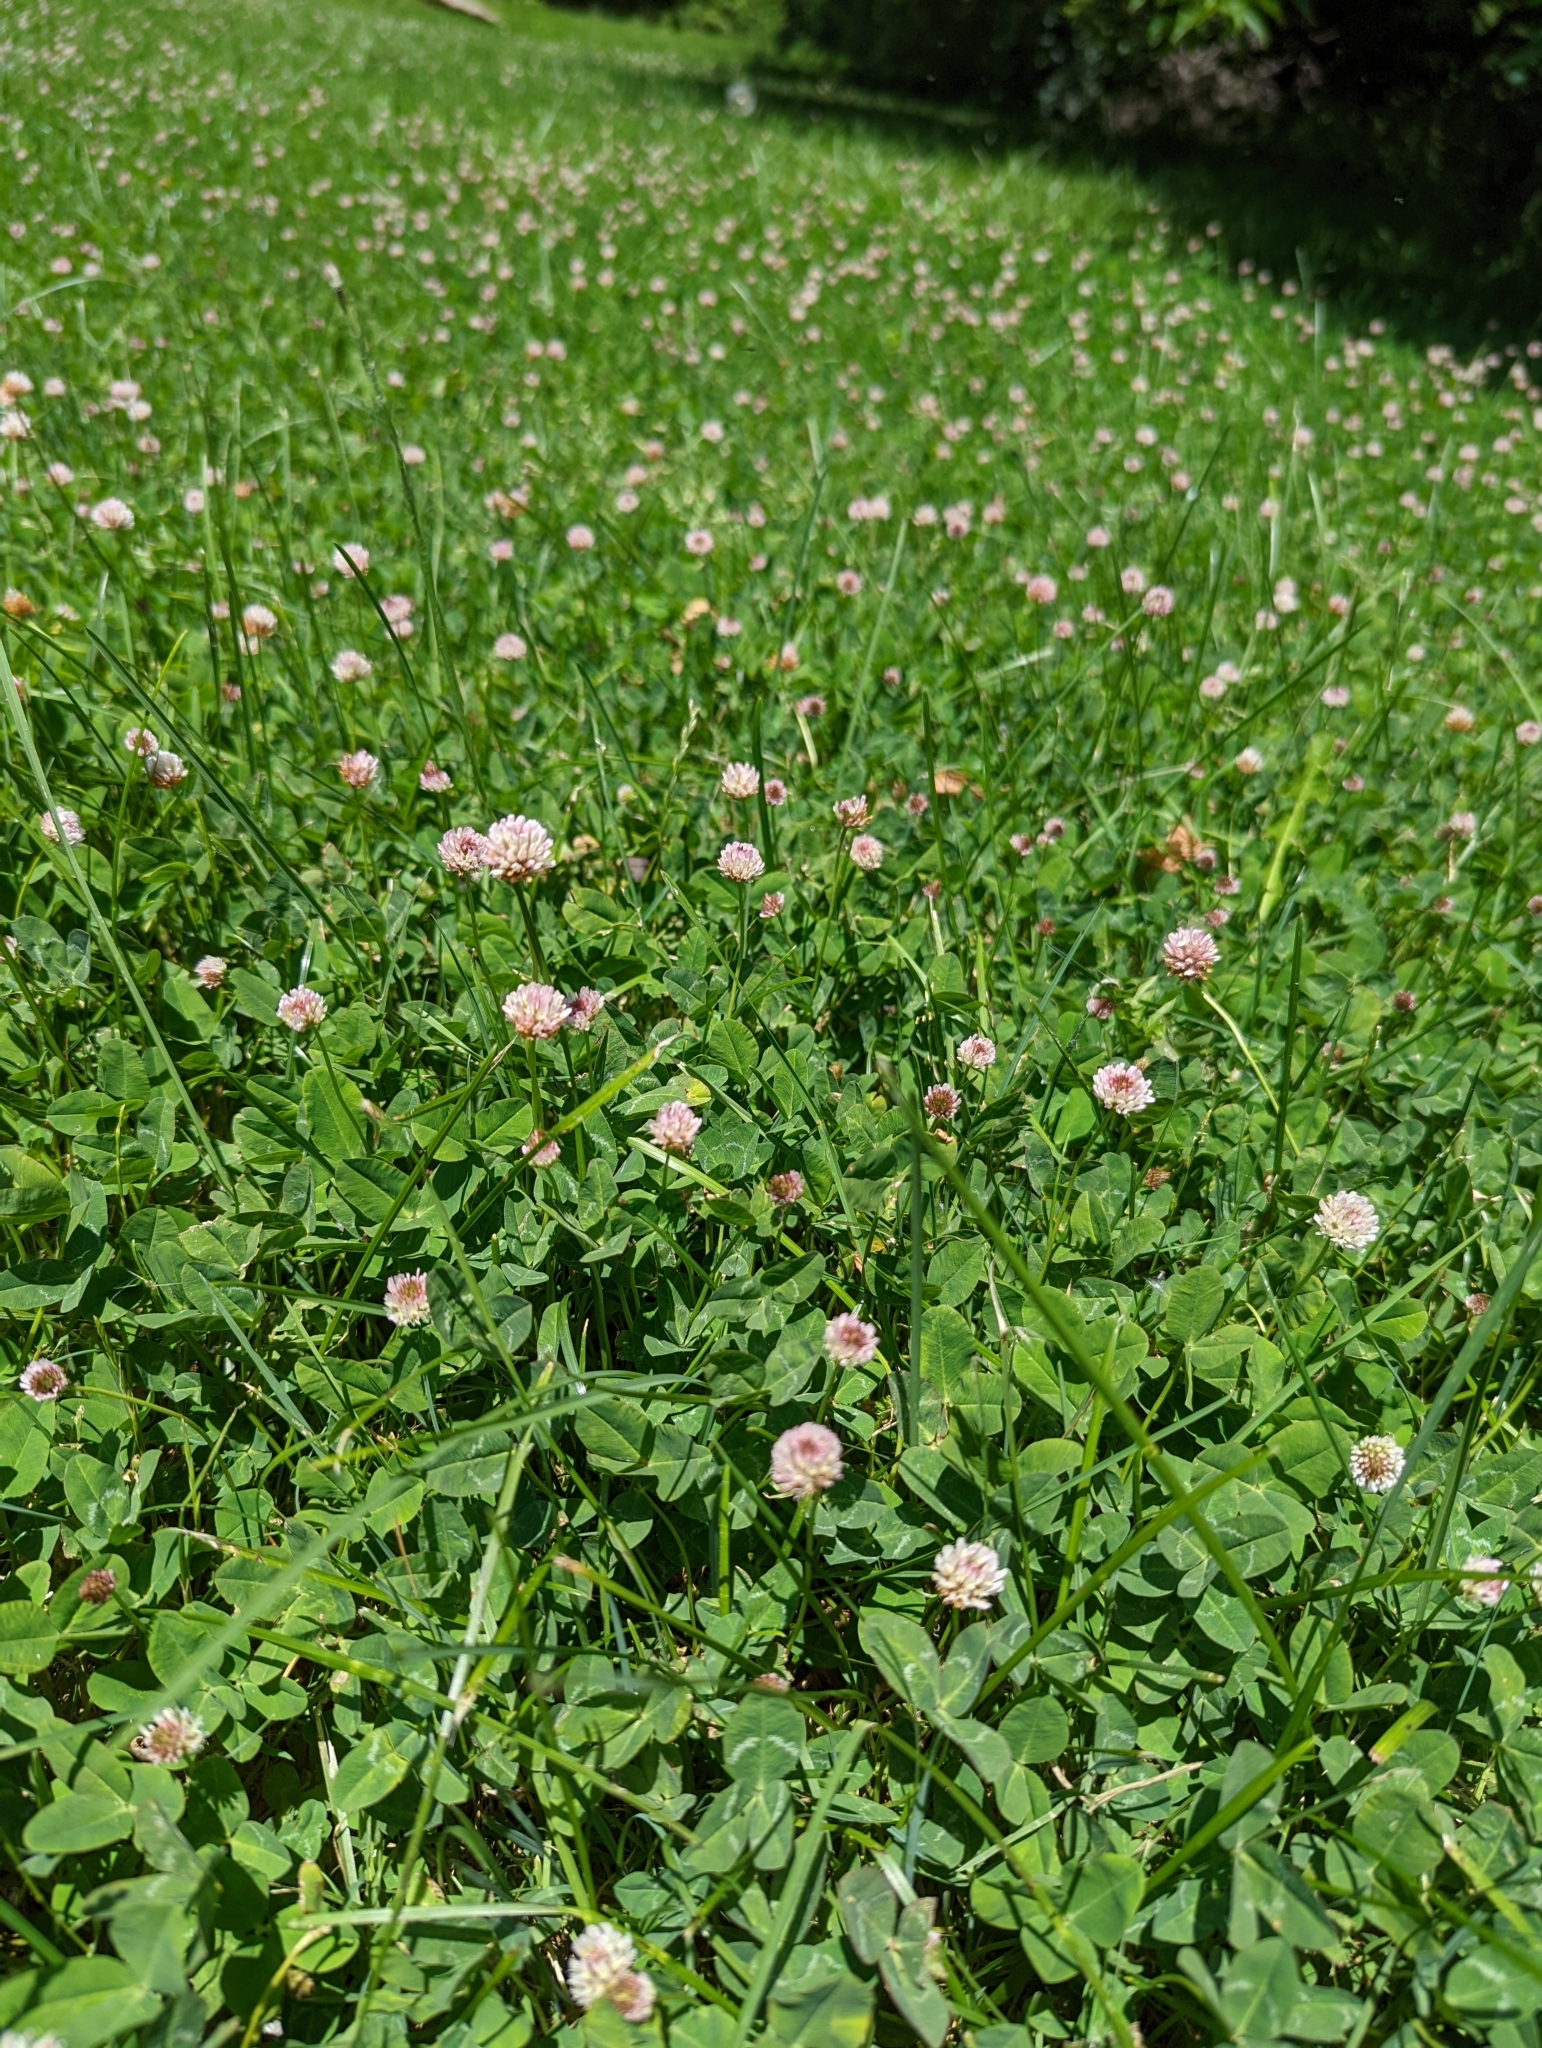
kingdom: Plantae
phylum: Tracheophyta
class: Magnoliopsida
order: Fabales
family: Fabaceae
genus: Trifolium
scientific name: Trifolium fragiferum
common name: Strawberry clover
